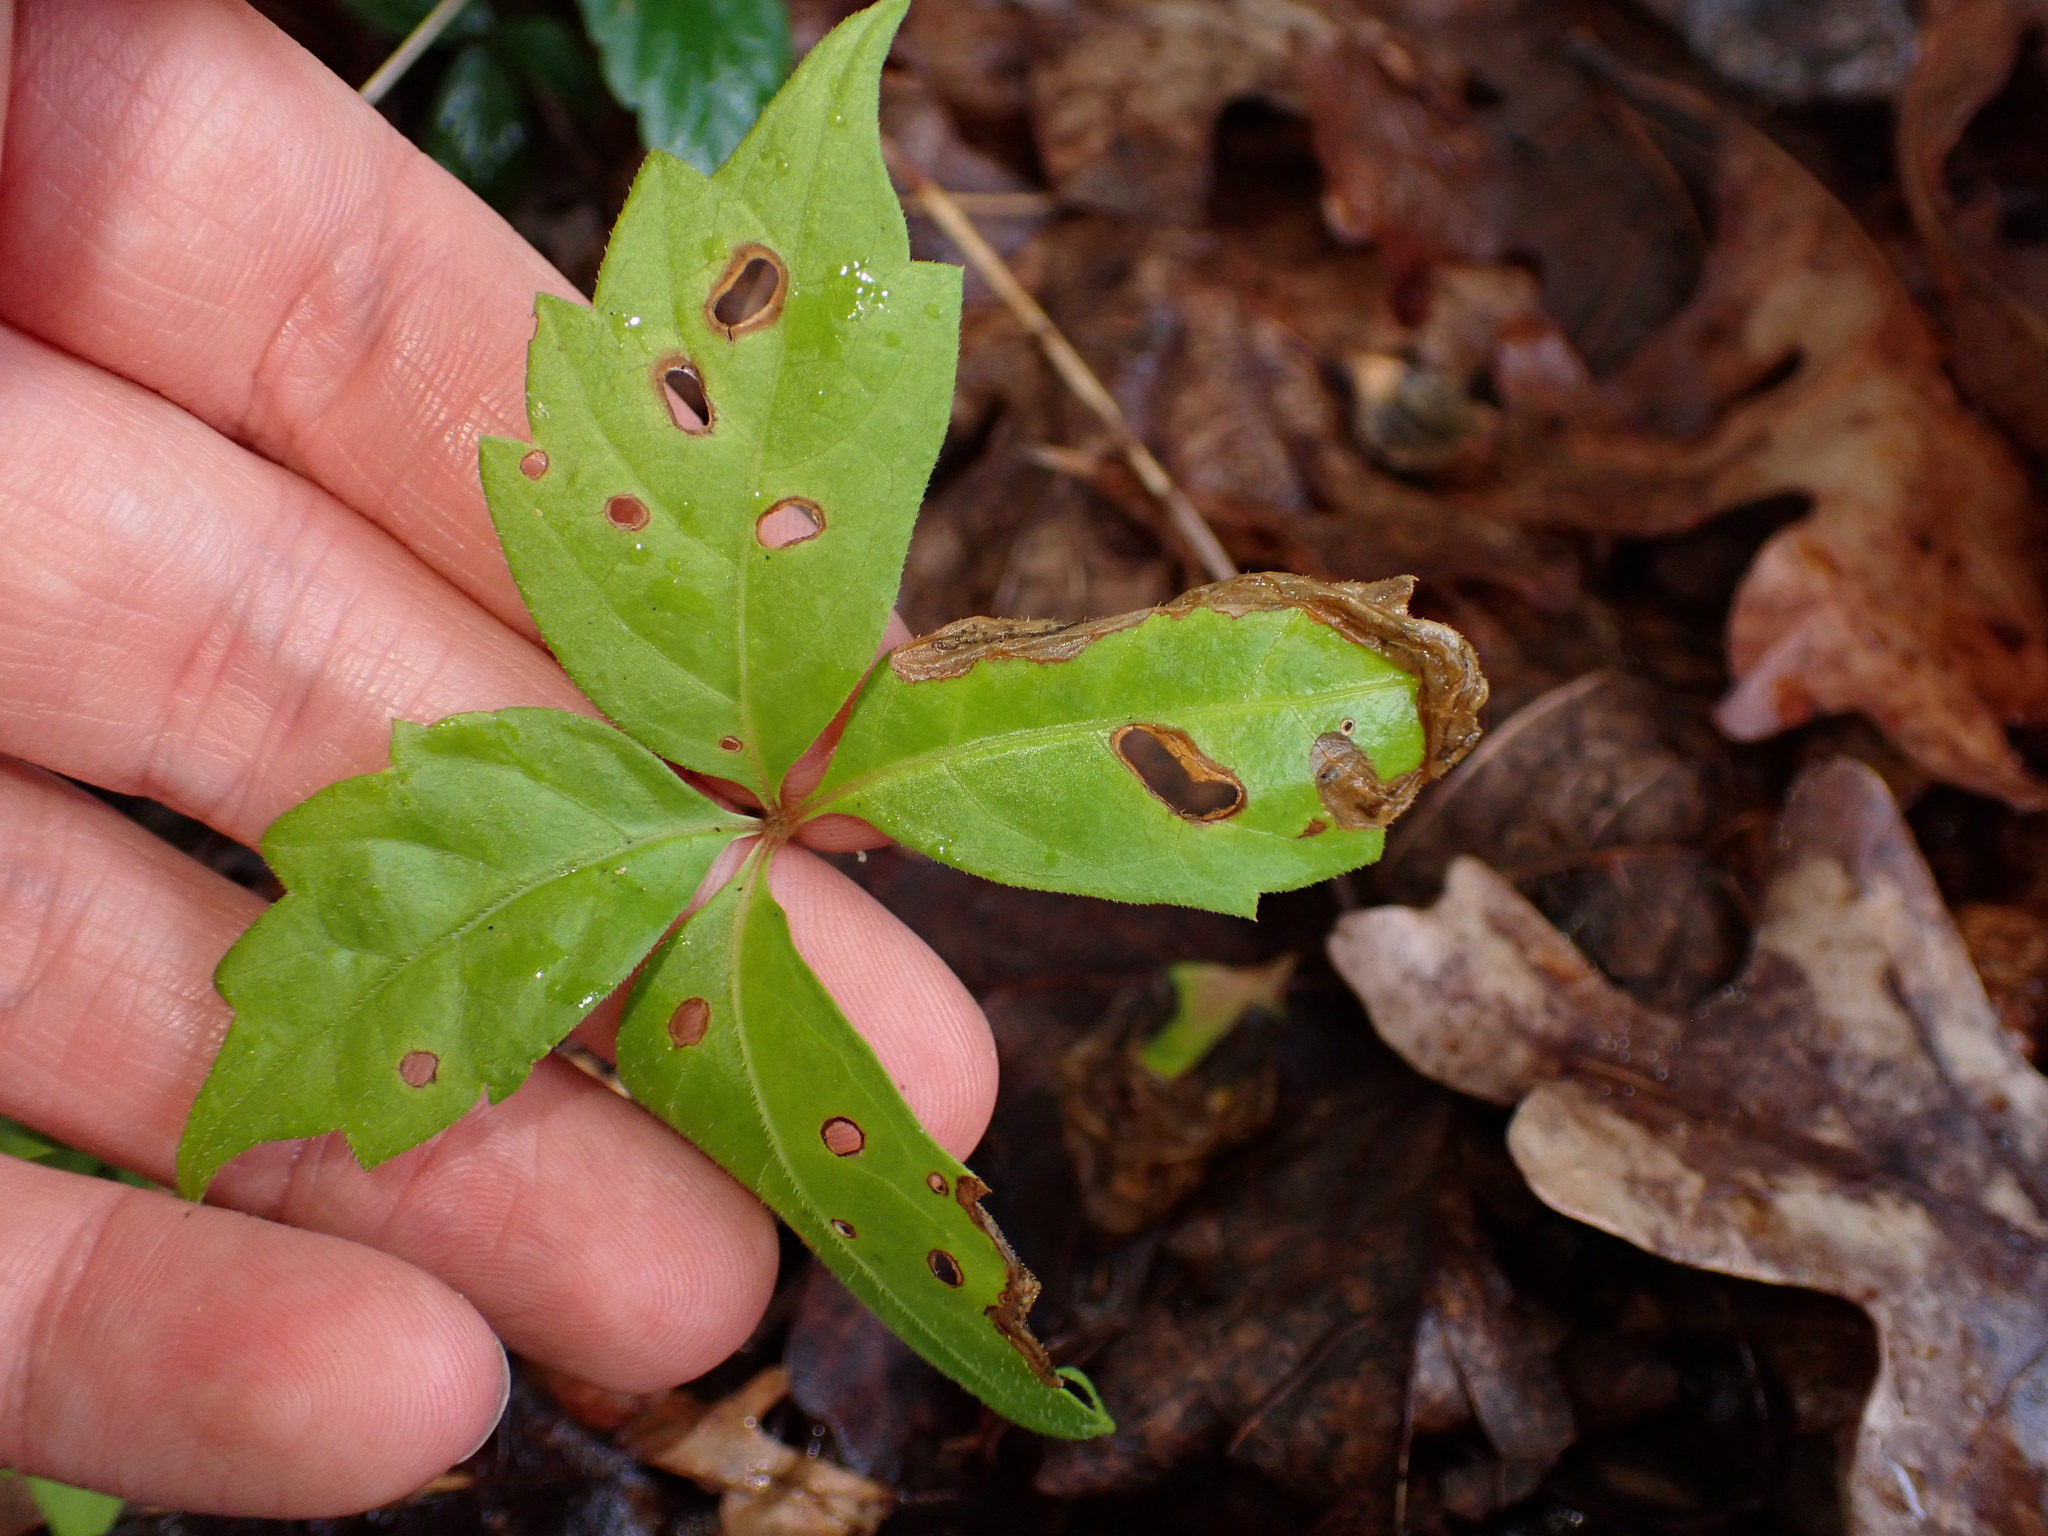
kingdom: Animalia
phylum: Arthropoda
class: Insecta
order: Coleoptera
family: Curculionidae
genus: Orchestomerus
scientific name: Orchestomerus eisemani
